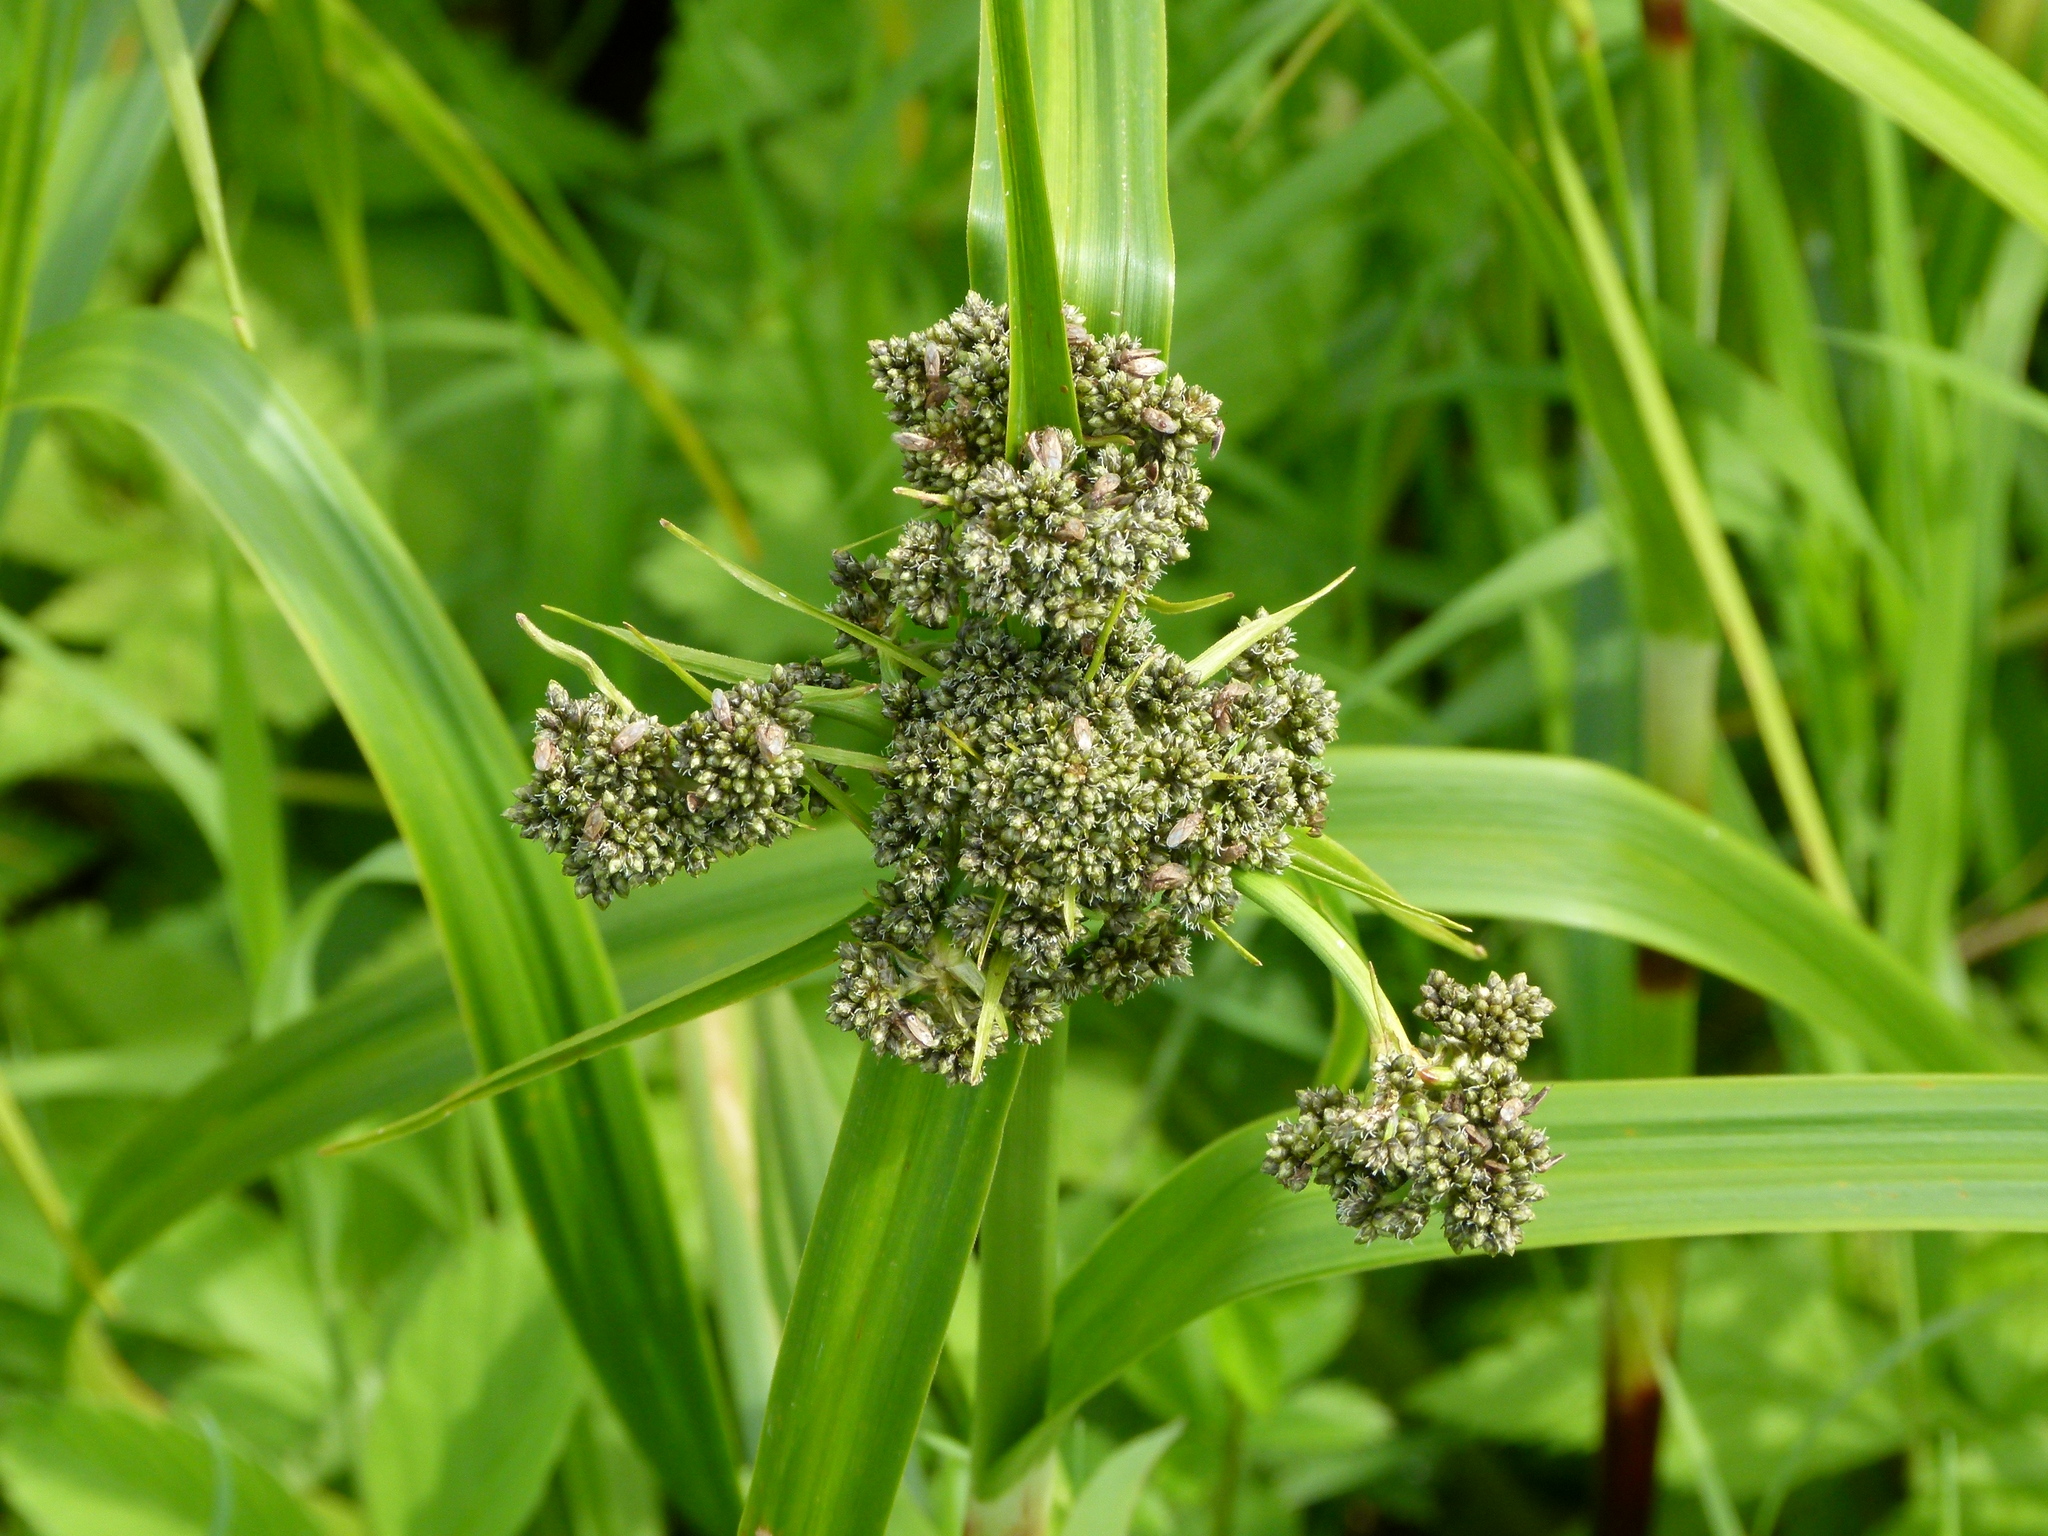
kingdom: Plantae
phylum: Tracheophyta
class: Liliopsida
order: Poales
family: Cyperaceae
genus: Scirpus
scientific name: Scirpus microcarpus
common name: Panicled bulrush
